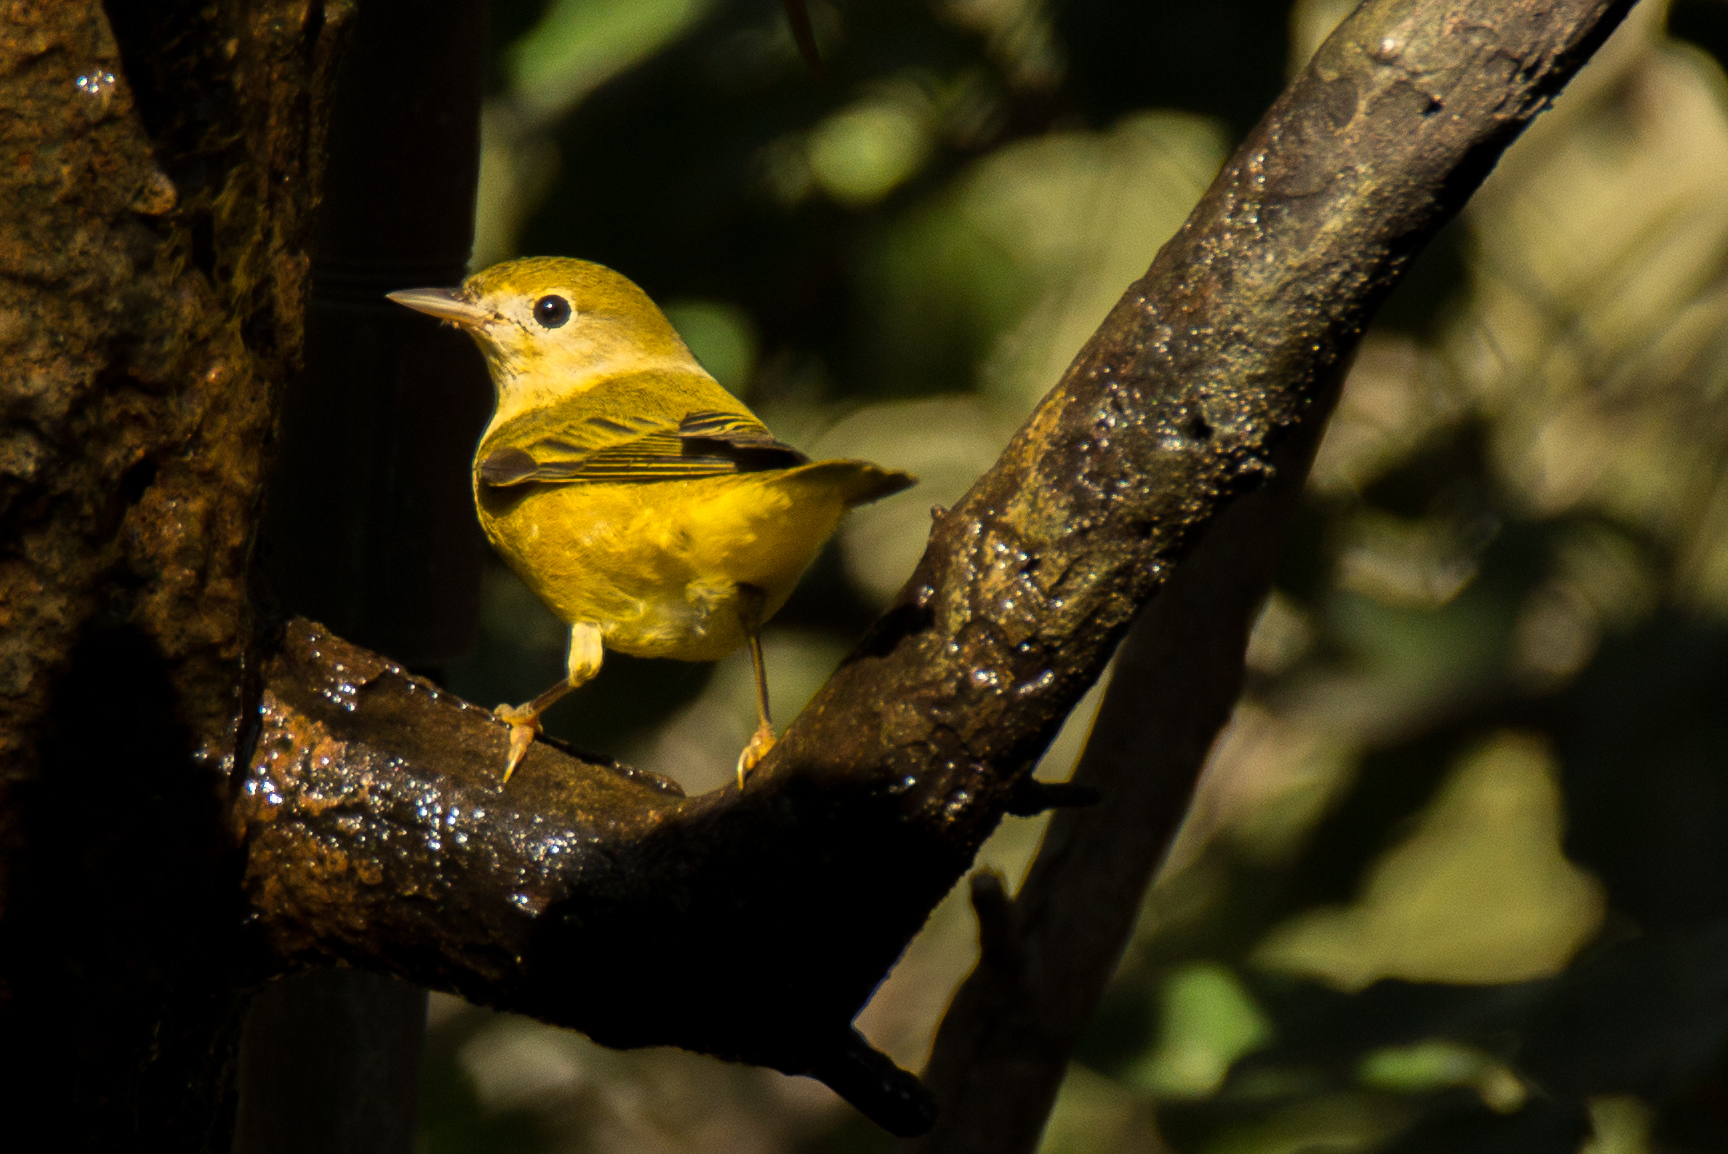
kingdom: Animalia
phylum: Chordata
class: Aves
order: Passeriformes
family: Parulidae
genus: Setophaga
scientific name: Setophaga petechia
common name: Yellow warbler
